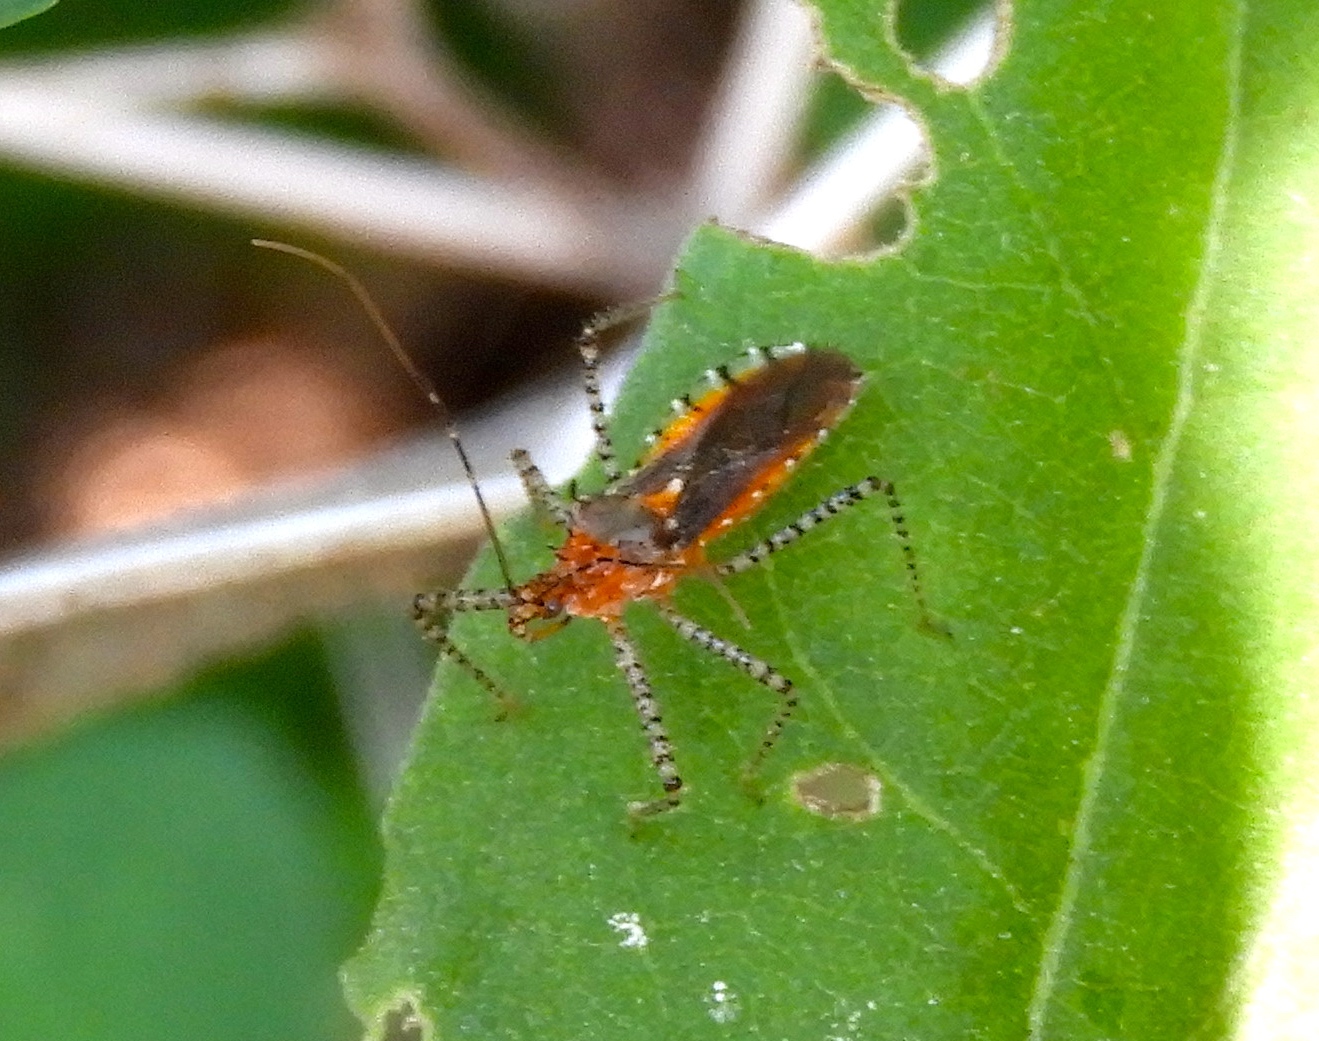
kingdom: Animalia
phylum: Arthropoda
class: Insecta
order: Hemiptera
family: Reduviidae
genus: Pselliopus
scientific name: Pselliopus
